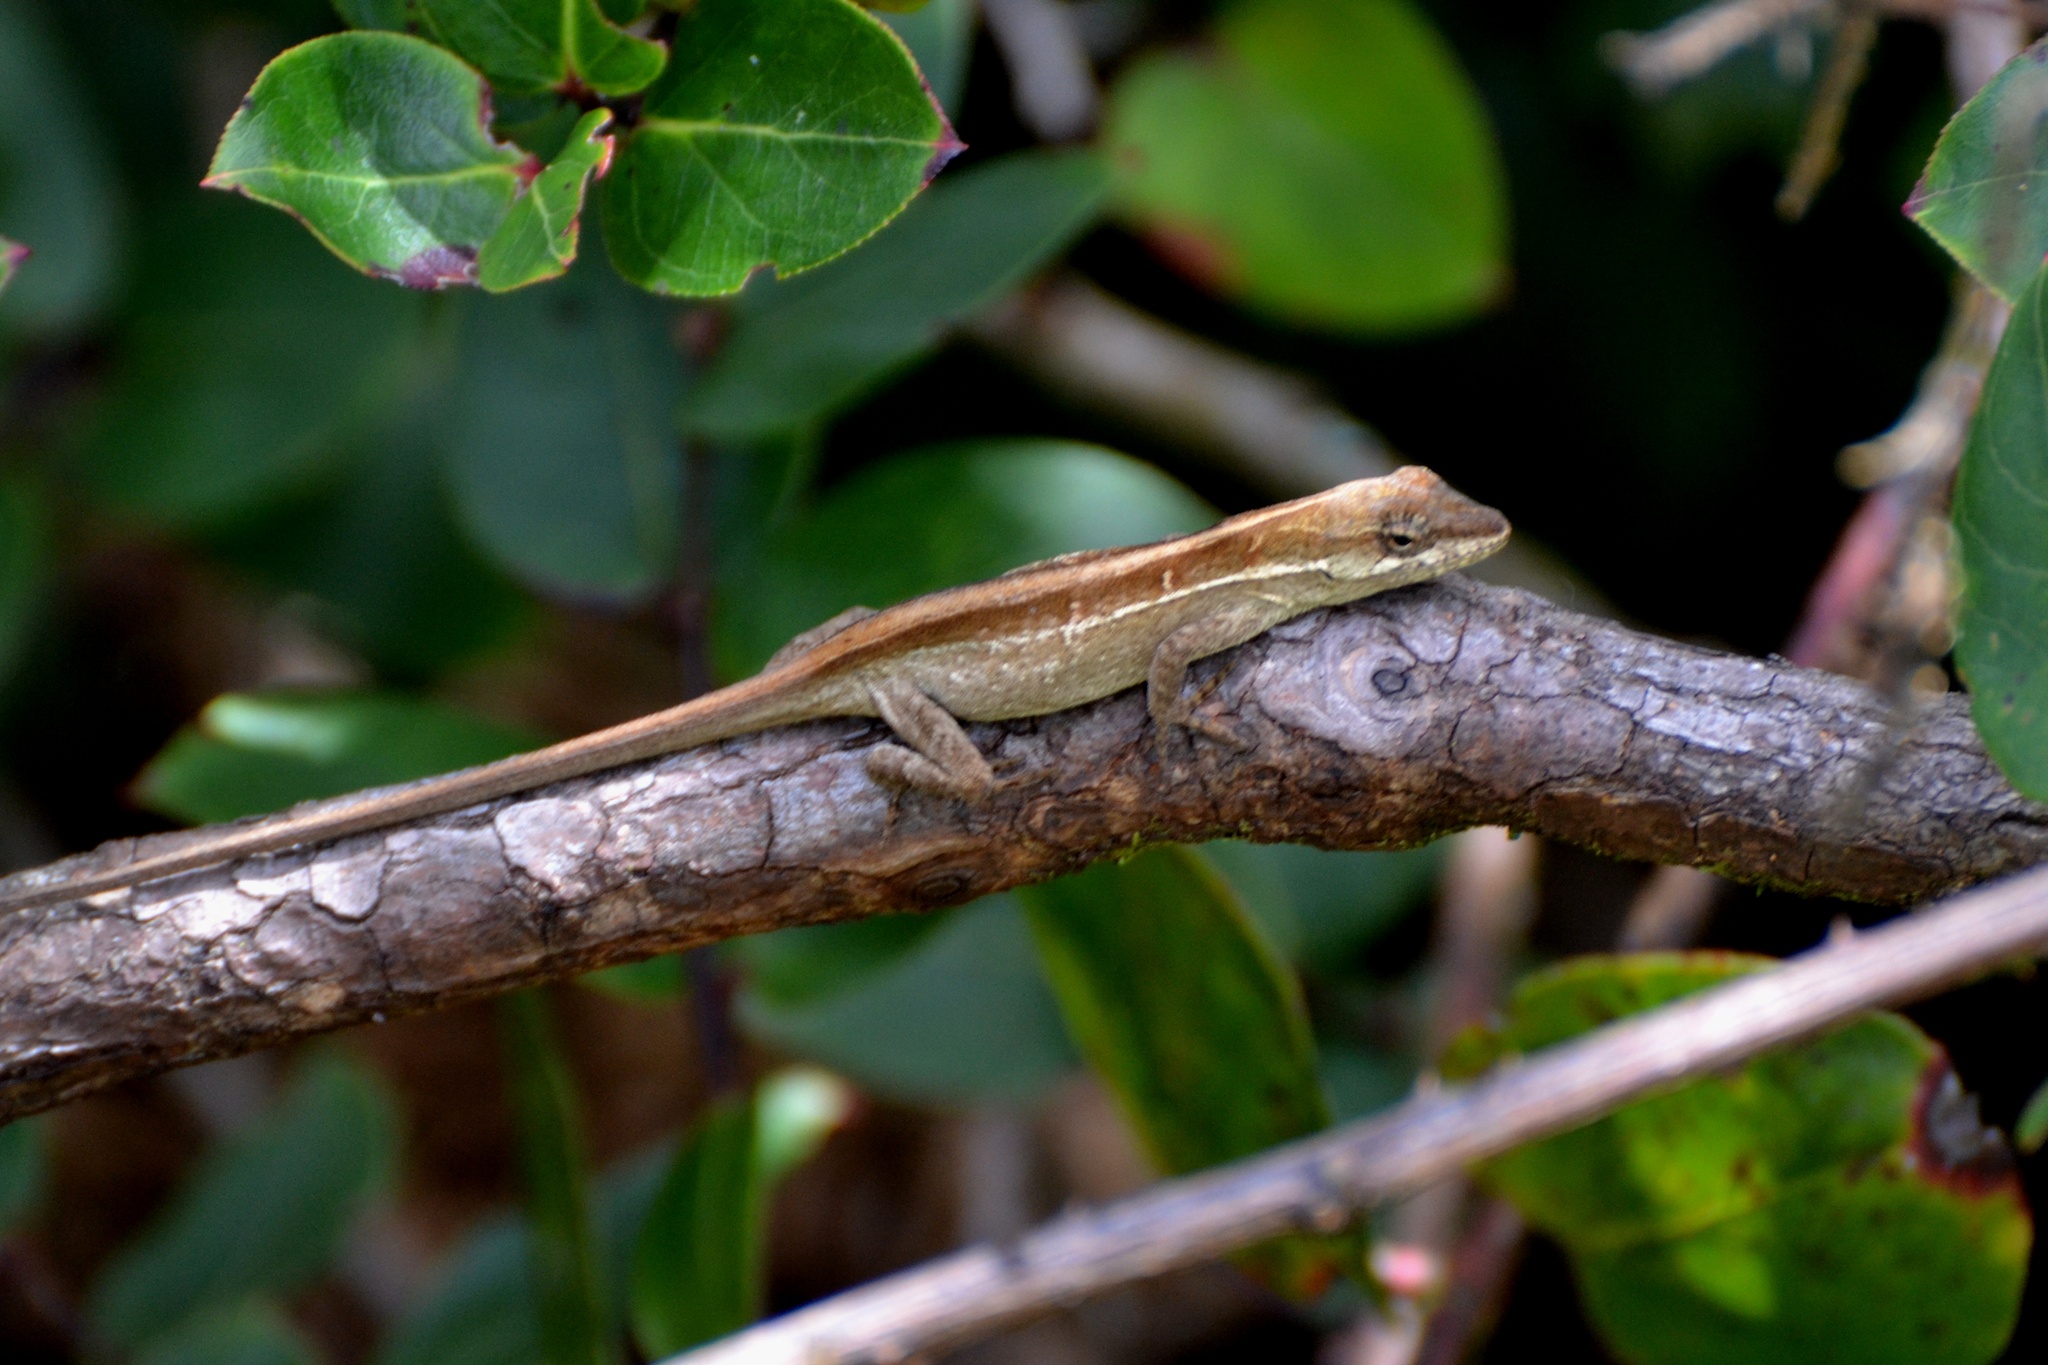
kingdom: Animalia
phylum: Chordata
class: Squamata
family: Dactyloidae
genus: Anolis
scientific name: Anolis dollfusianus
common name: Coffee anole
